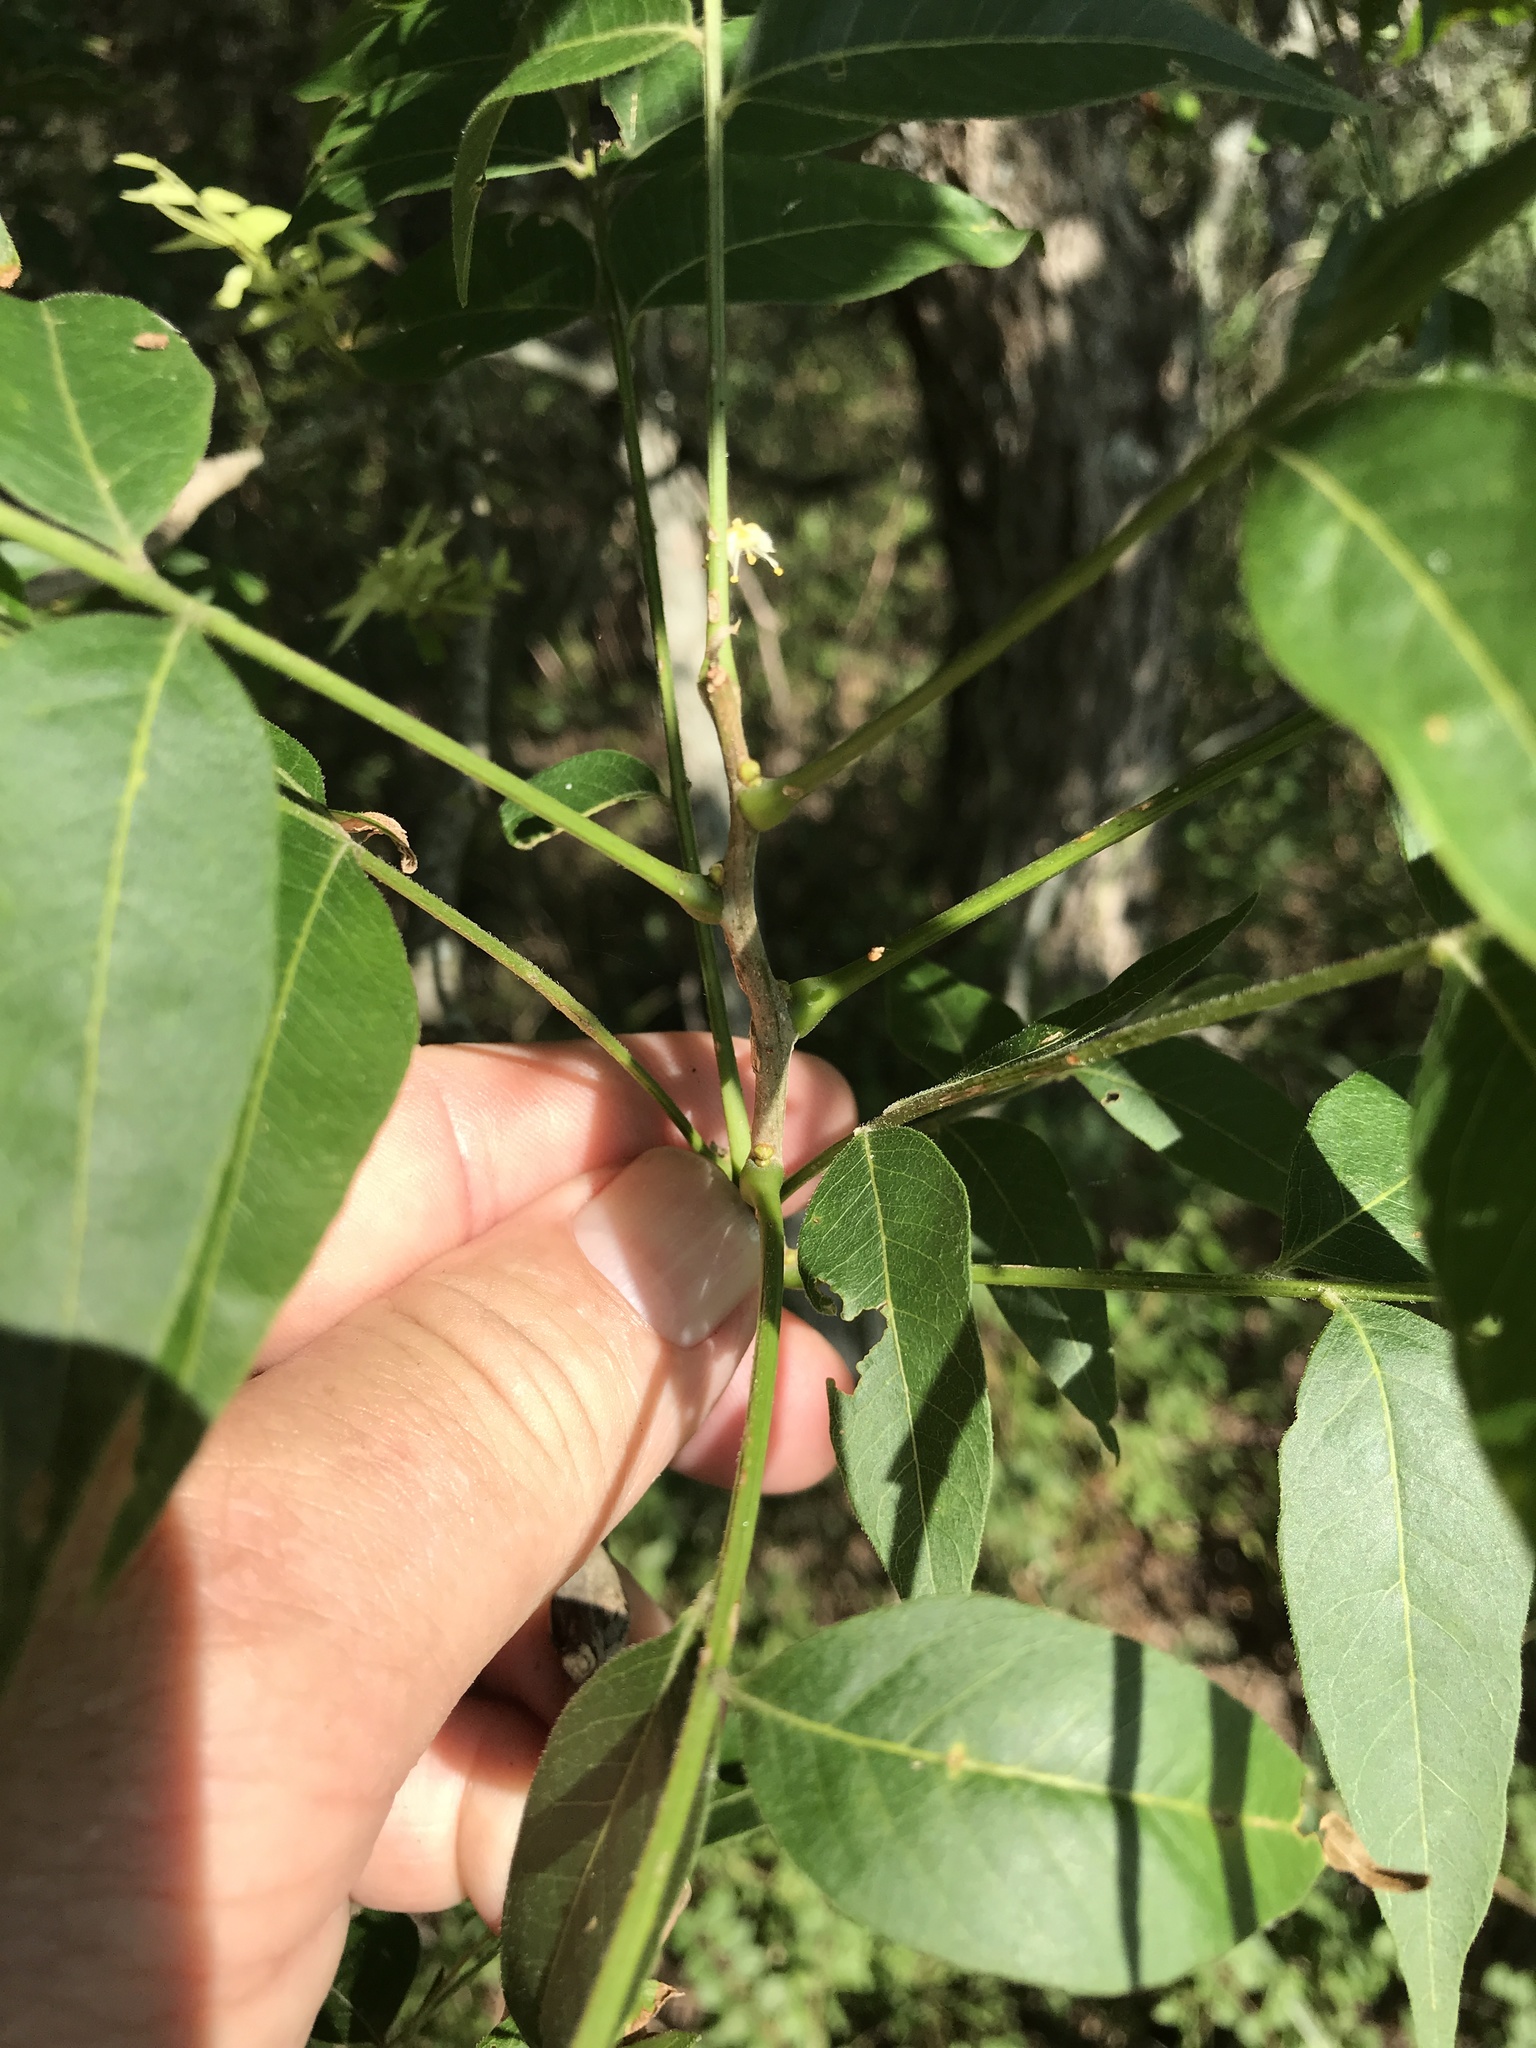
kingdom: Plantae
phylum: Tracheophyta
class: Magnoliopsida
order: Sapindales
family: Sapindaceae
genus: Sapindus
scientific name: Sapindus drummondii
